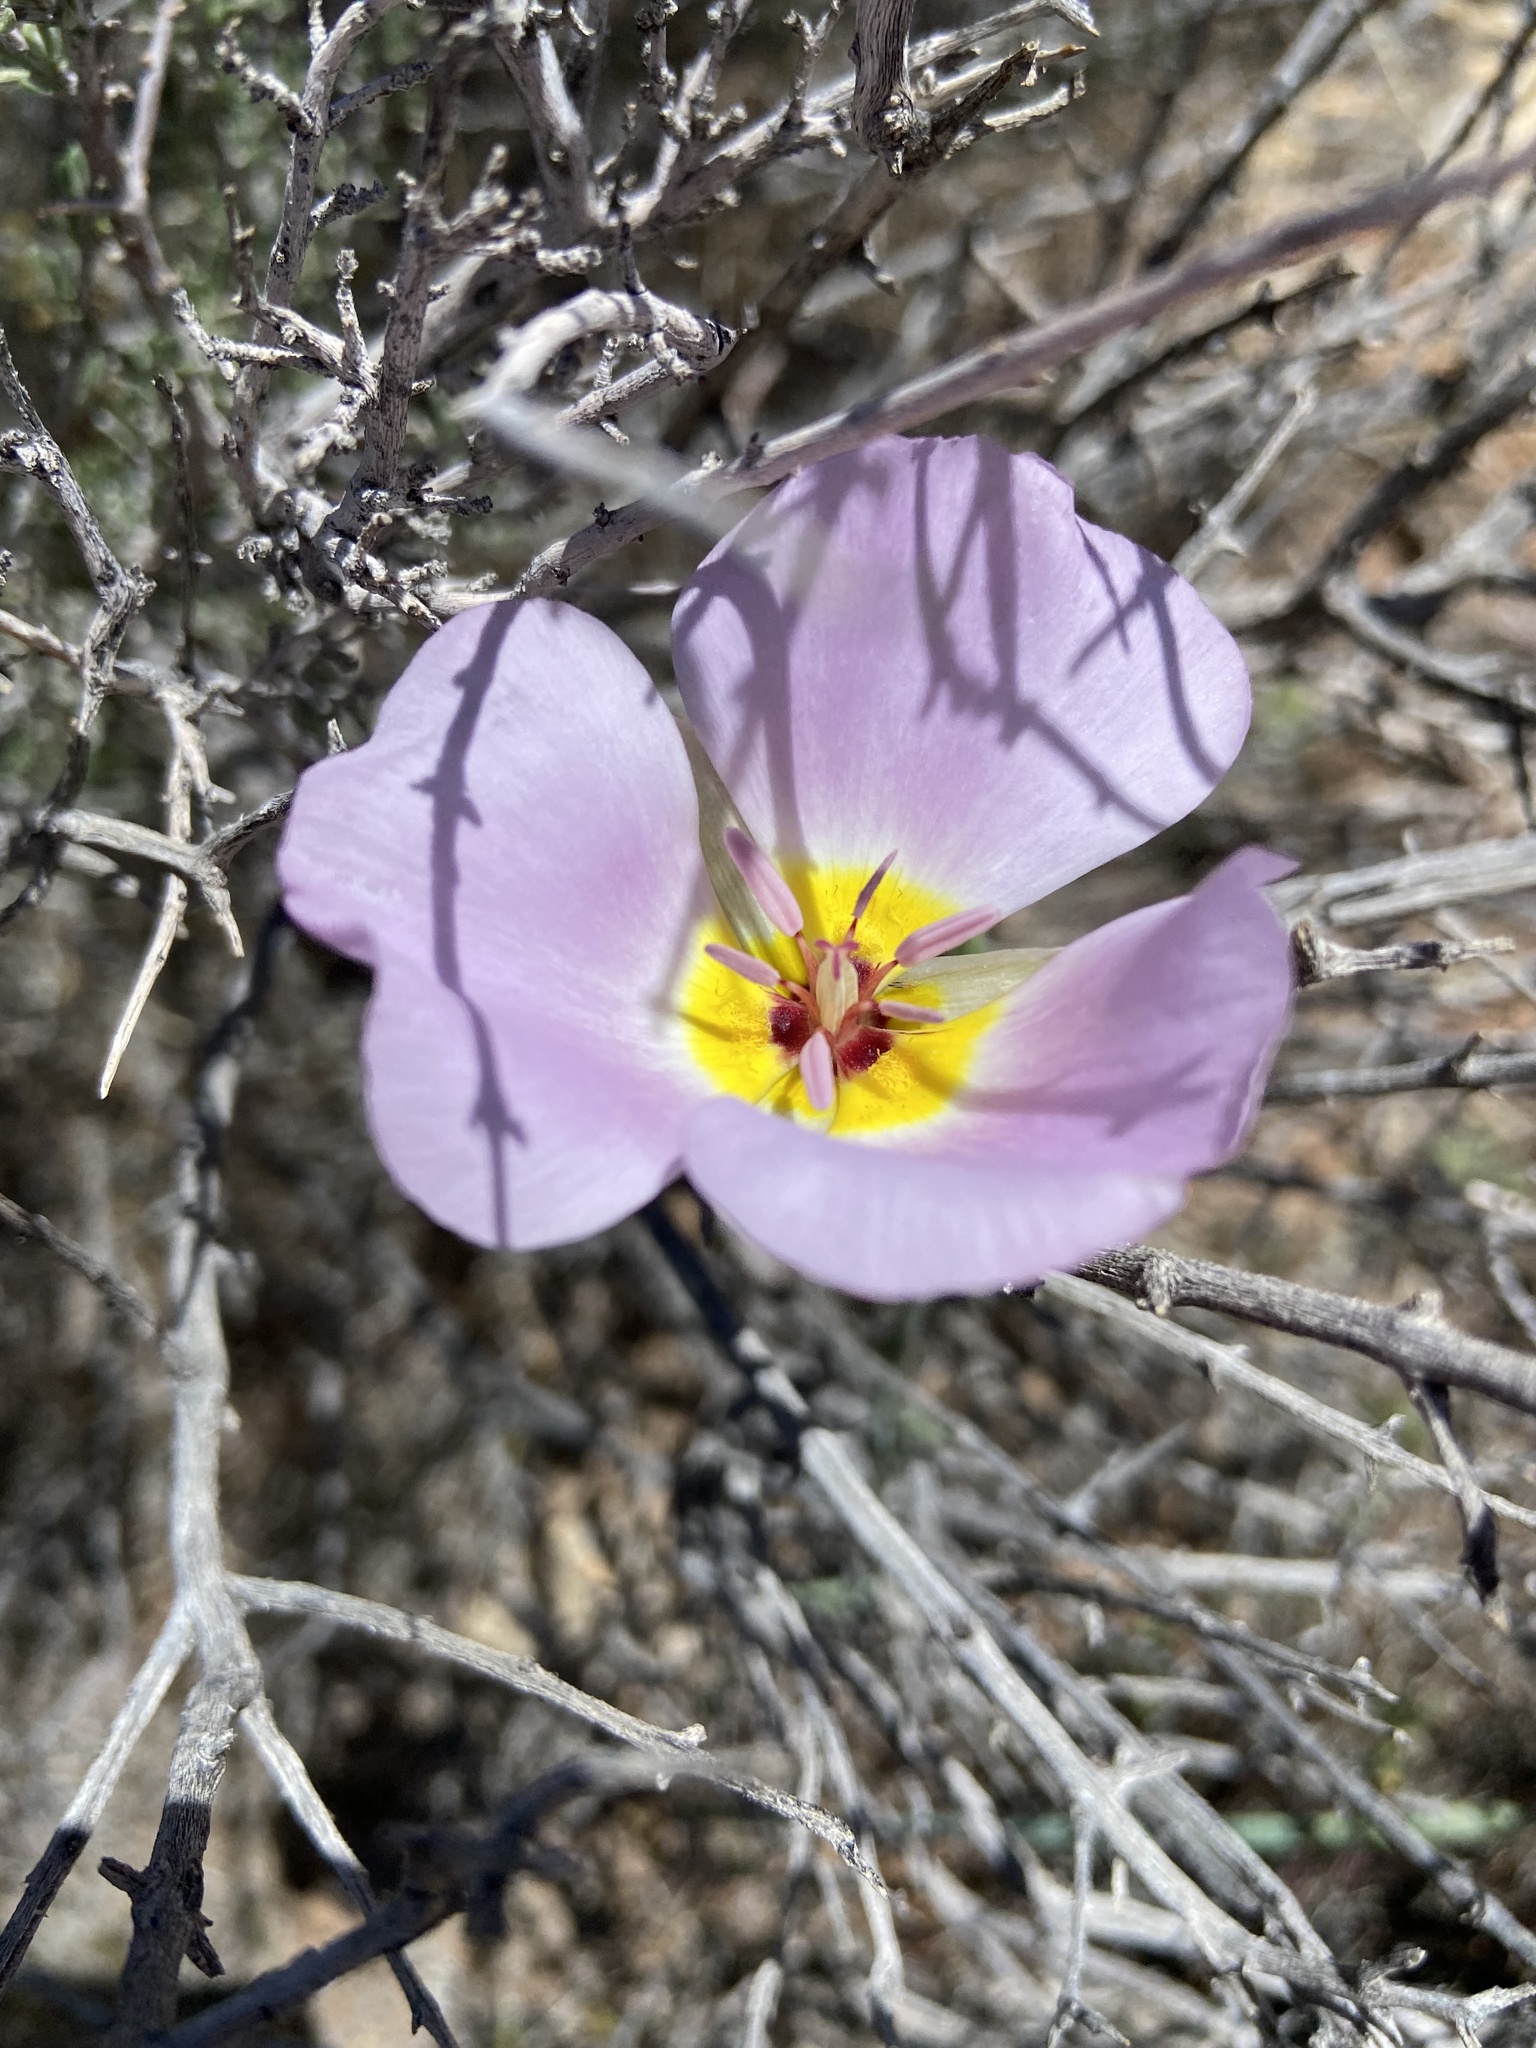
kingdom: Plantae
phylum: Tracheophyta
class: Liliopsida
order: Liliales
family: Liliaceae
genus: Calochortus
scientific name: Calochortus flexuosus
